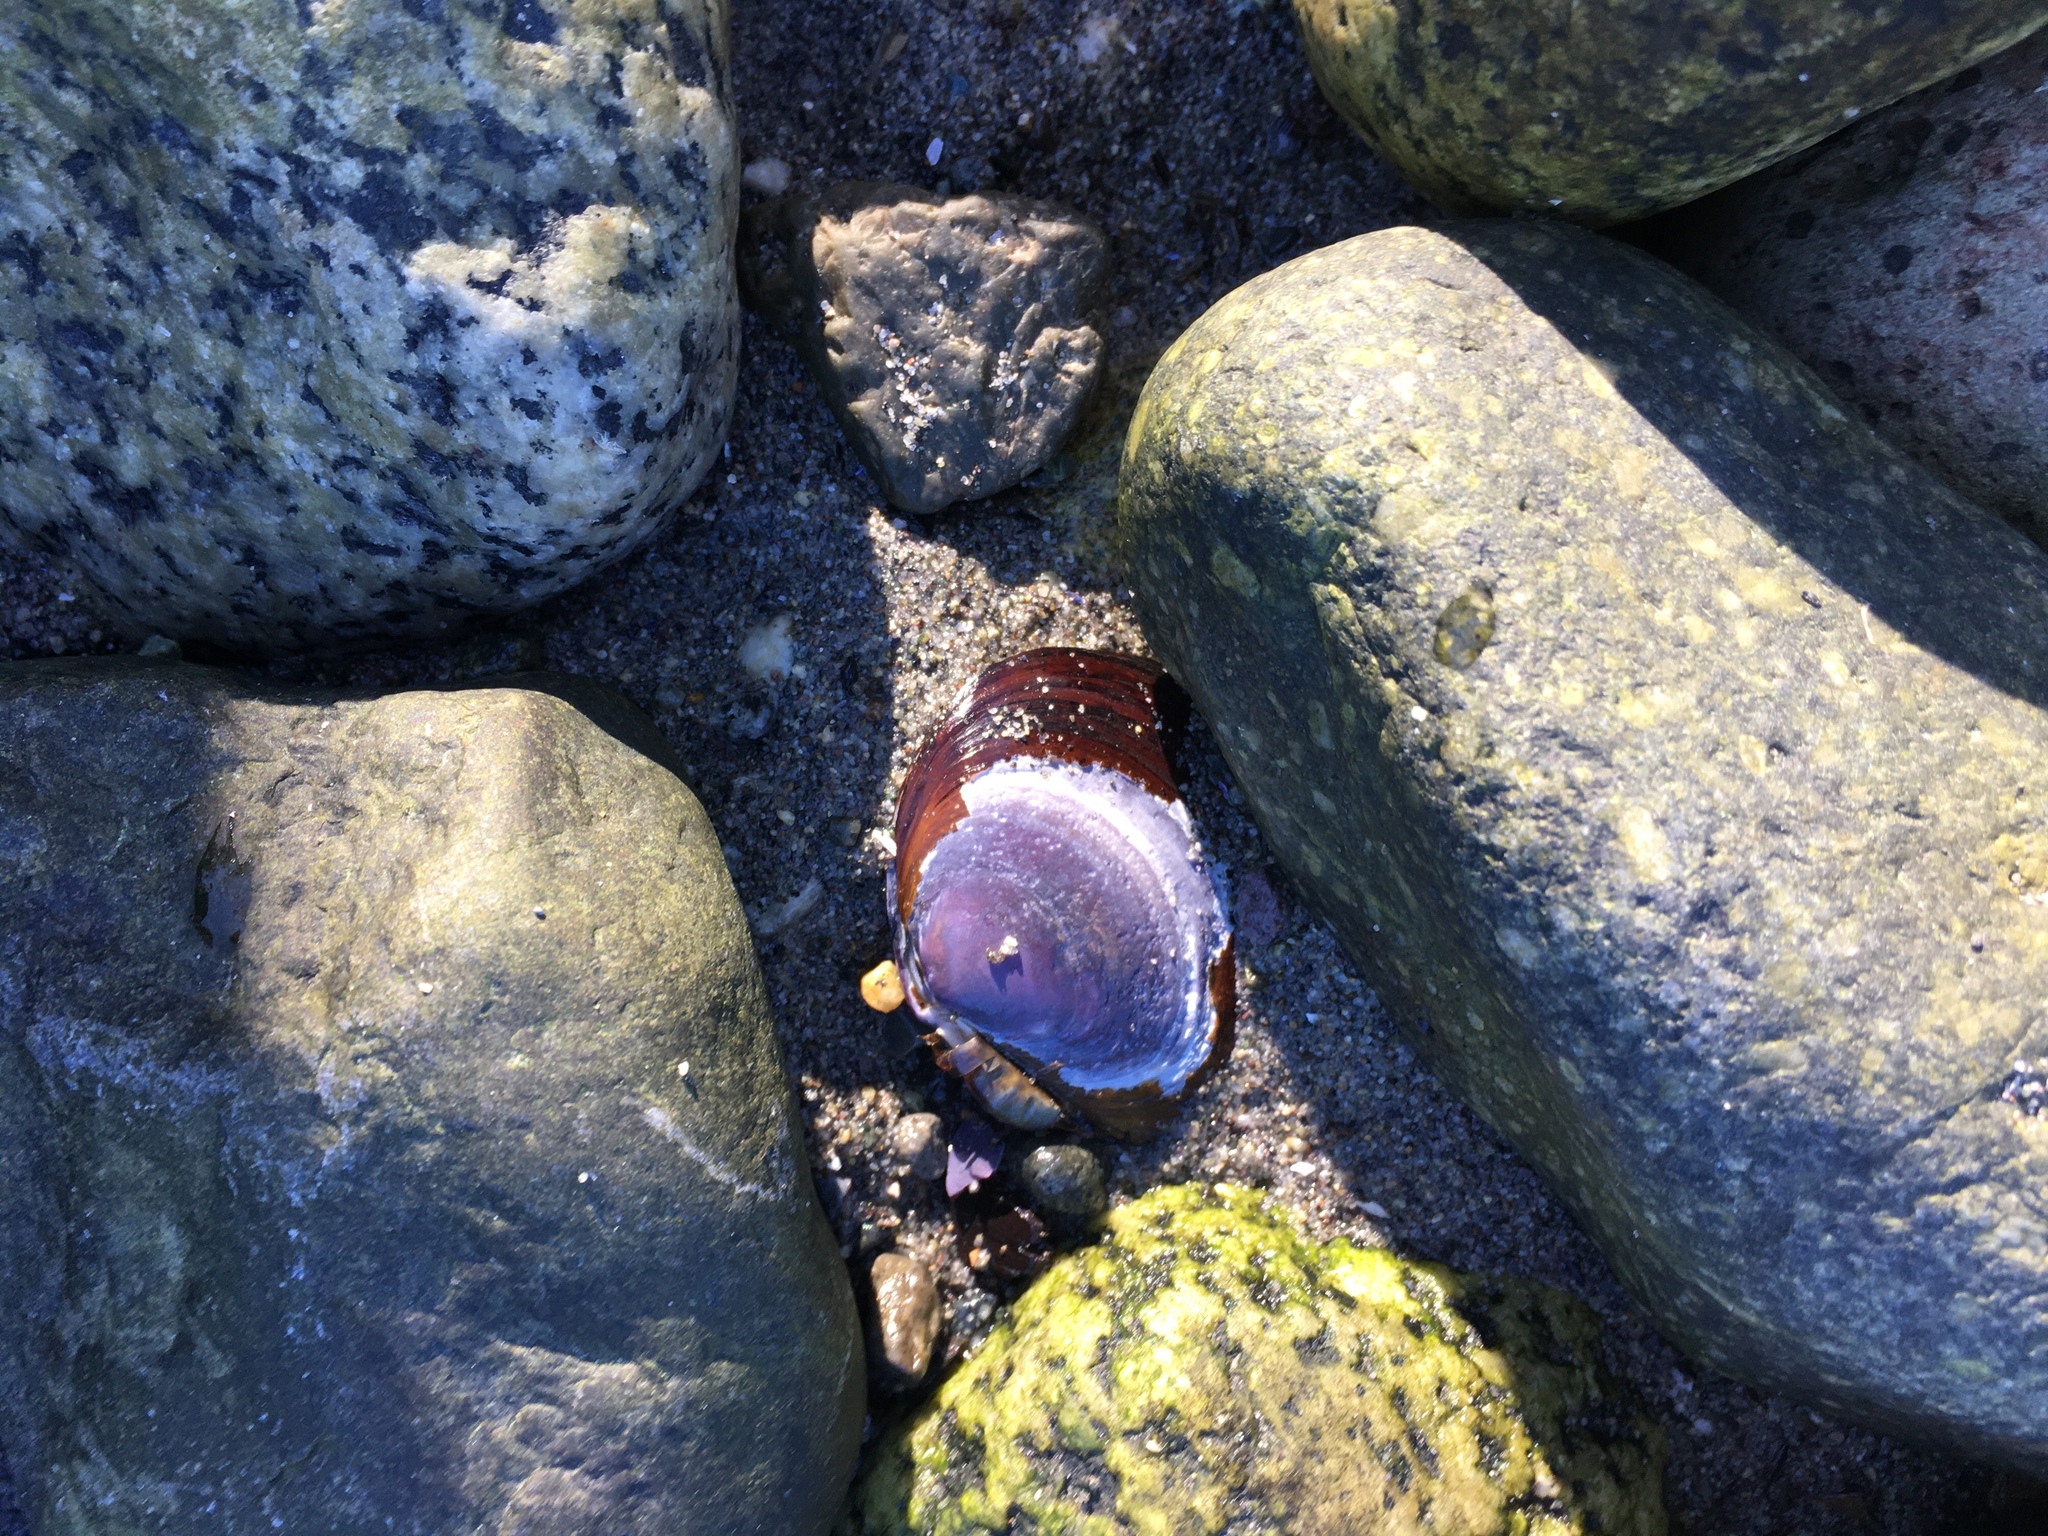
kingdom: Animalia
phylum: Mollusca
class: Bivalvia
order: Cardiida
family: Psammobiidae
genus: Nuttallia
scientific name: Nuttallia obscurata
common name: Purple mahogany-clam
